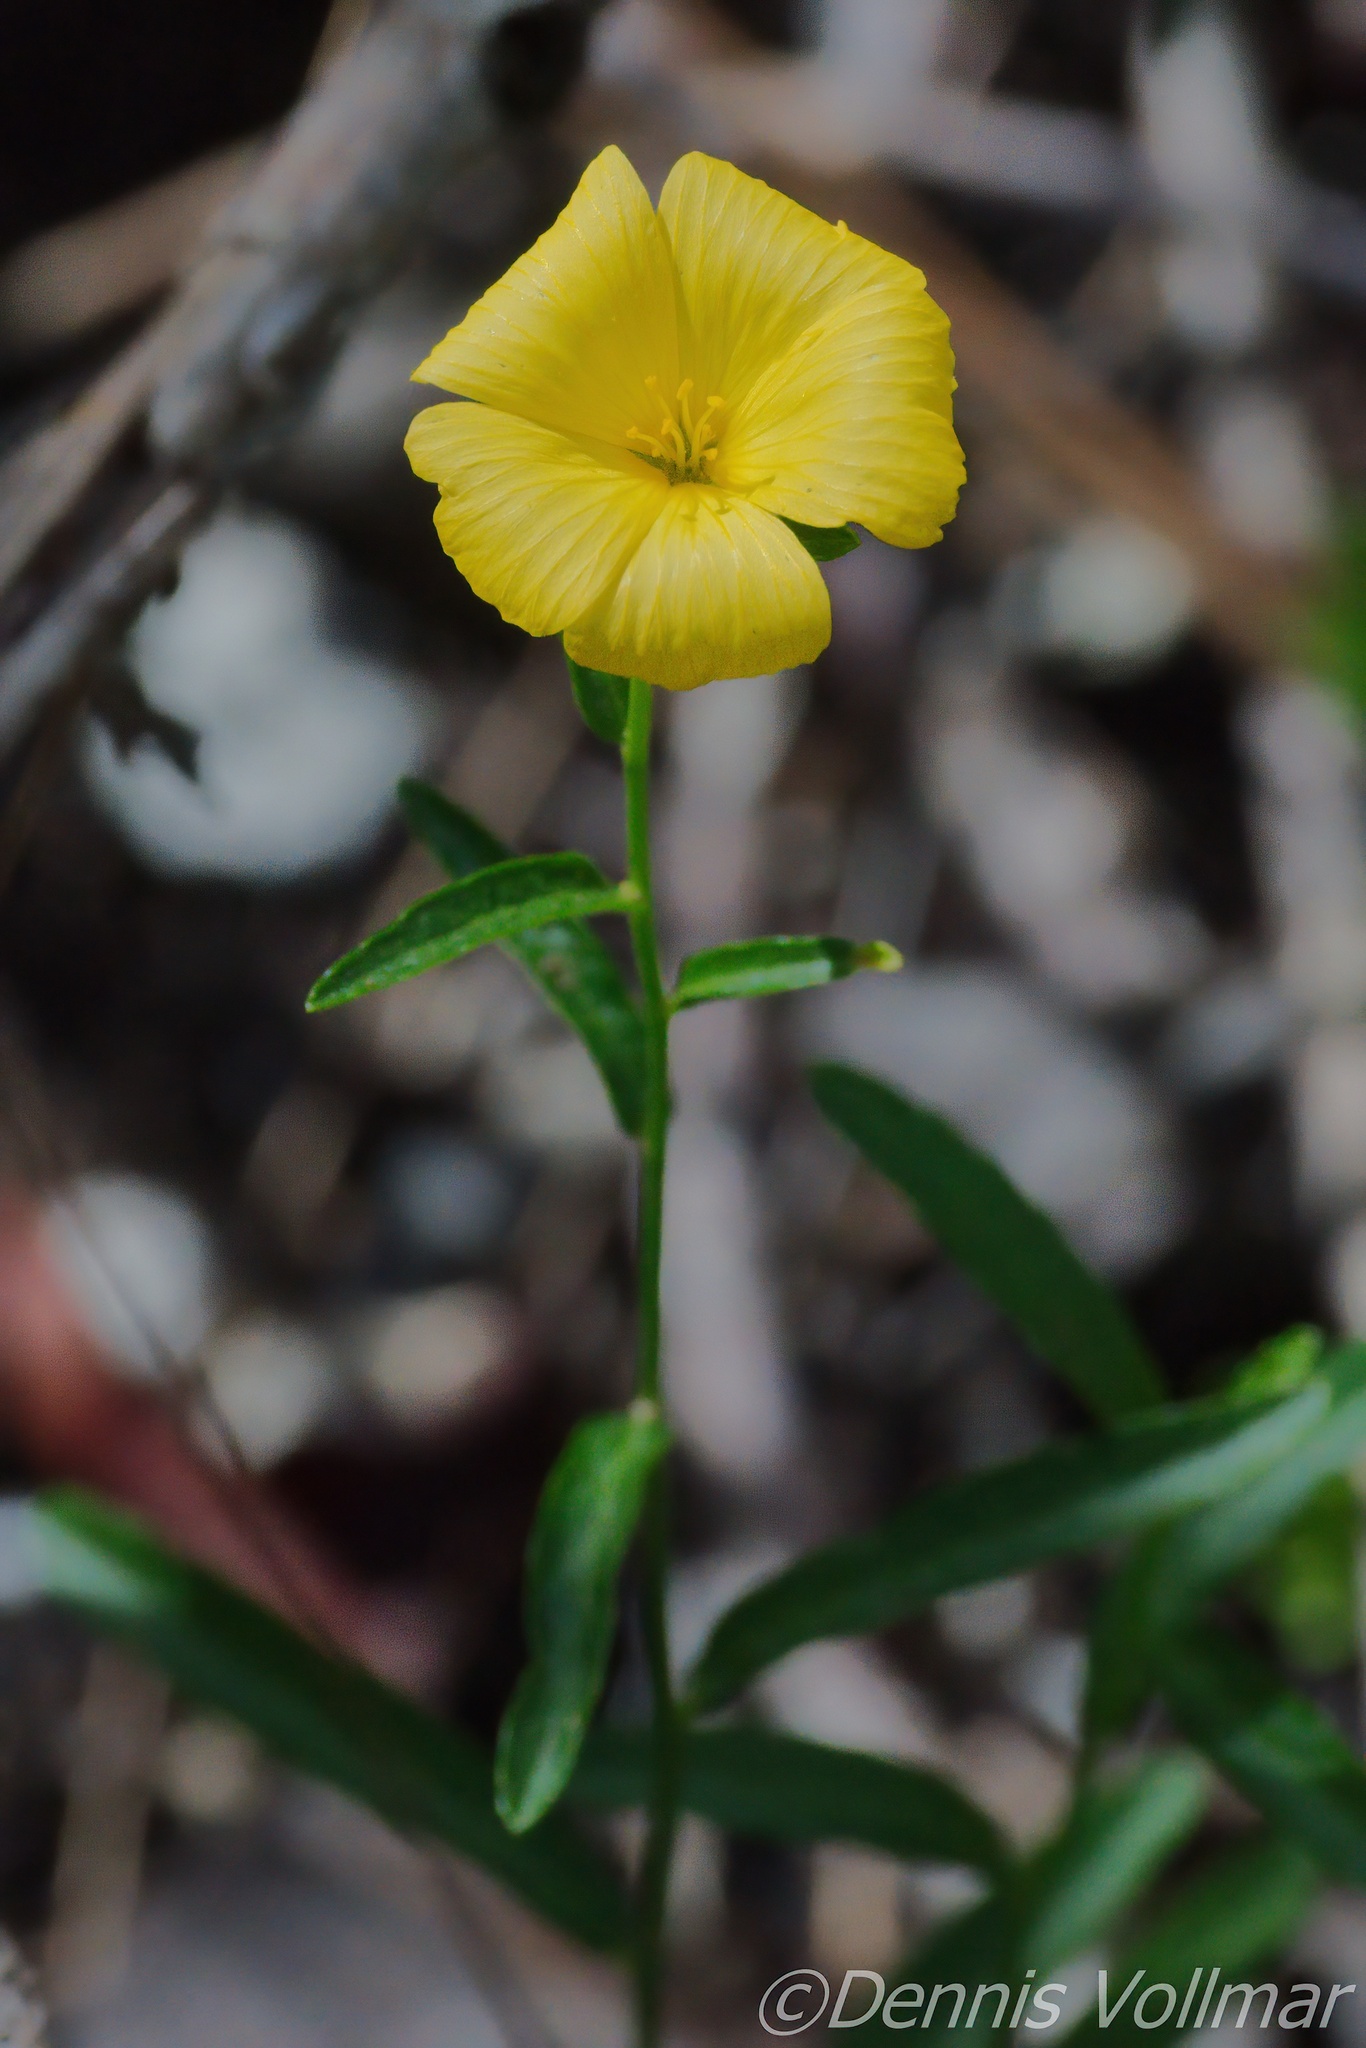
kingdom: Plantae
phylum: Tracheophyta
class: Magnoliopsida
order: Malpighiales
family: Turneraceae
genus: Piriqueta
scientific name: Piriqueta cistoides
